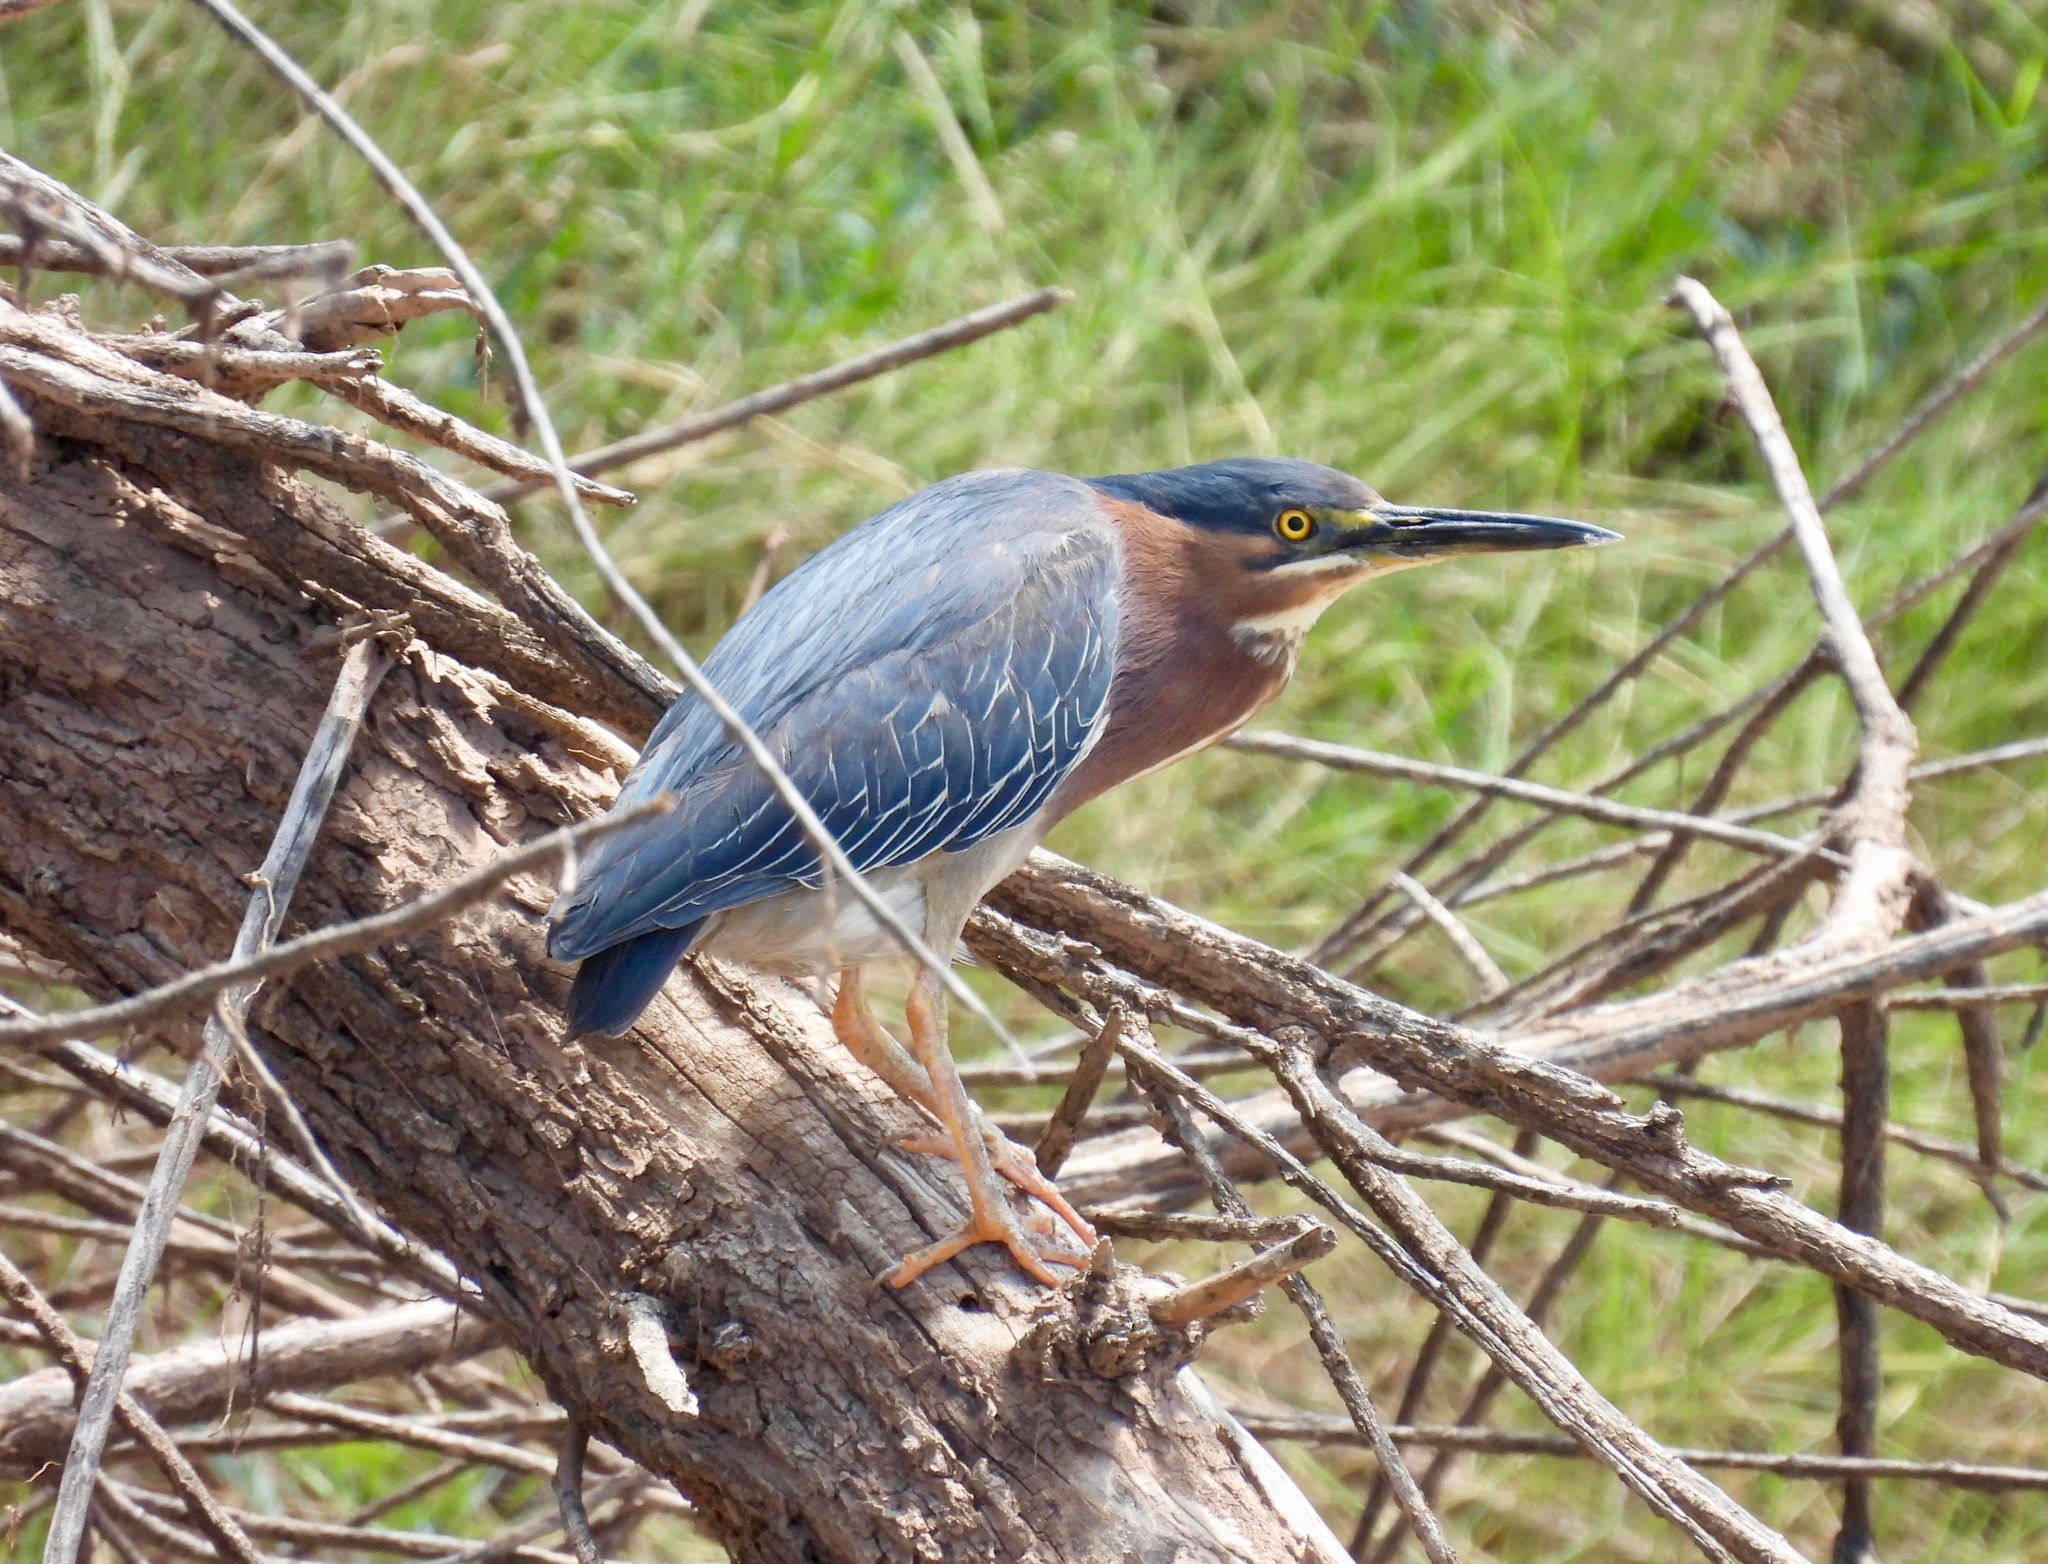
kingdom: Animalia
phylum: Chordata
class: Aves
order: Pelecaniformes
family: Ardeidae
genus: Butorides
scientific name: Butorides virescens
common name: Green heron
